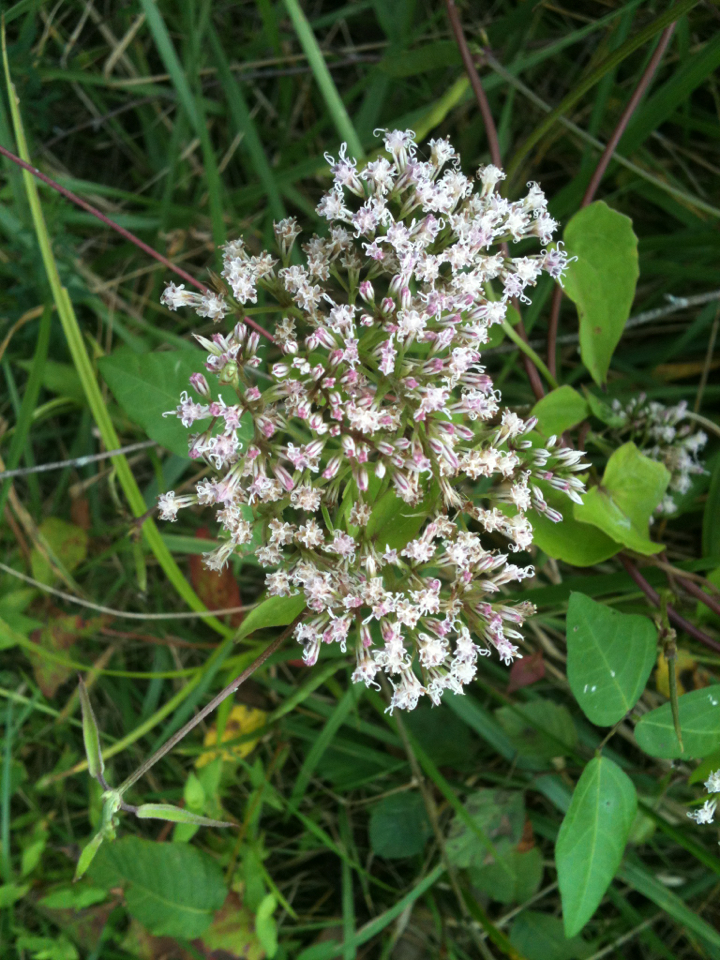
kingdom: Plantae
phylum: Tracheophyta
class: Magnoliopsida
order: Asterales
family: Asteraceae
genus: Mikania
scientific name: Mikania scandens
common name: Climbing hempvine
